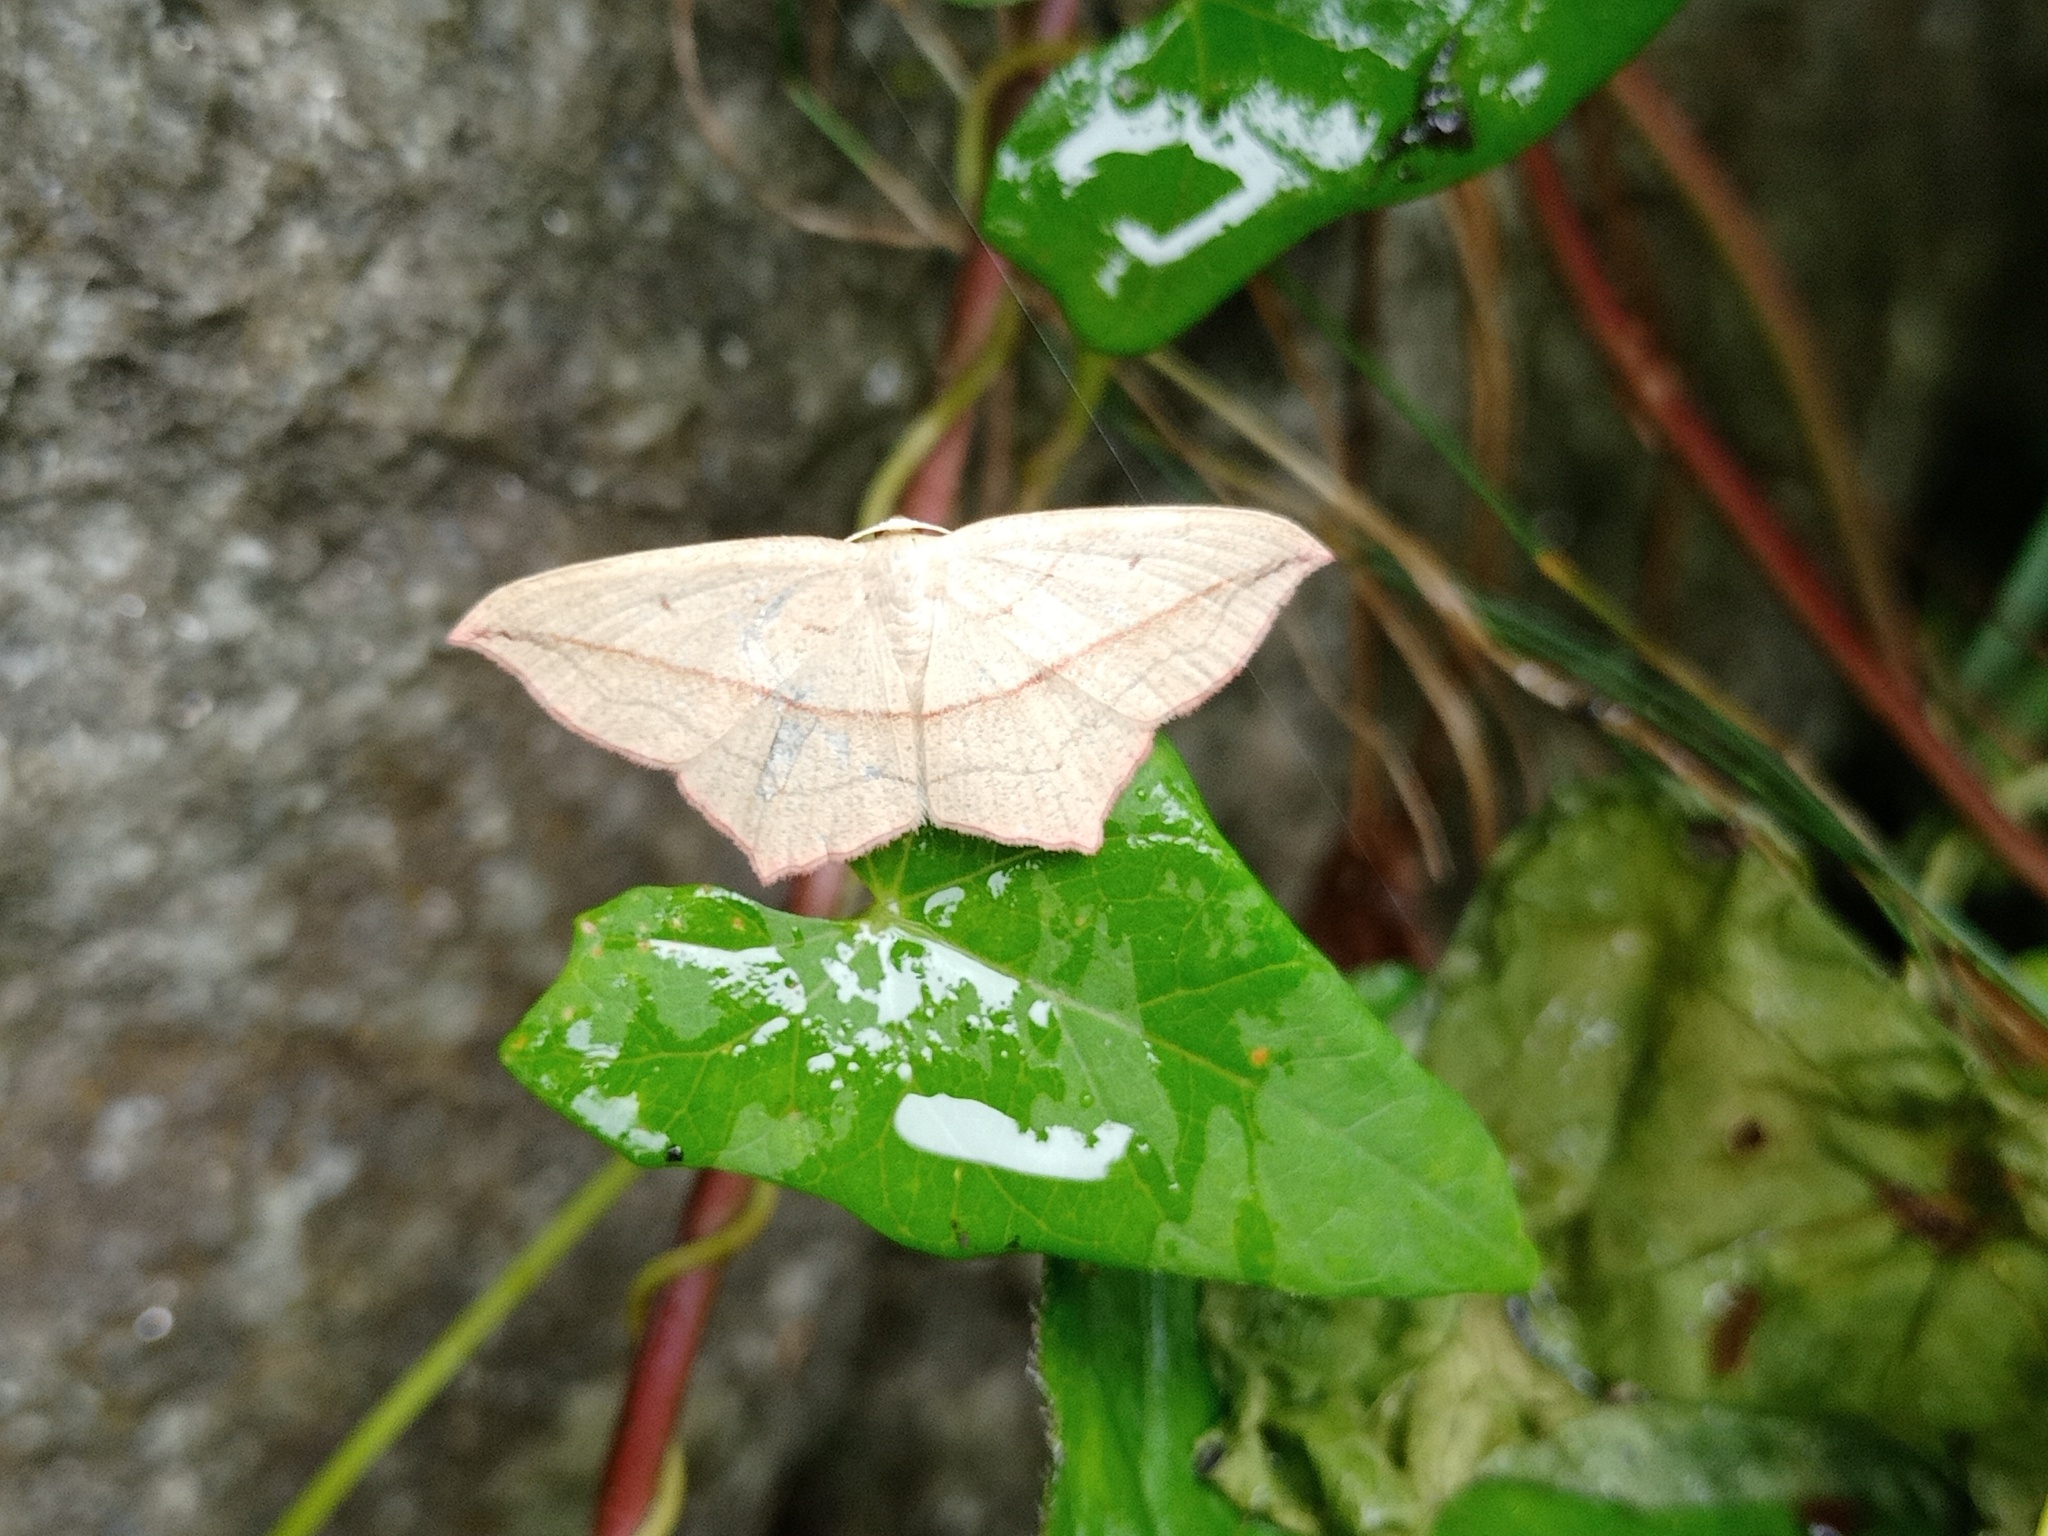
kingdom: Animalia
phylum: Arthropoda
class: Insecta
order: Lepidoptera
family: Geometridae
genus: Timandra
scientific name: Timandra comae
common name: Blood-vein
